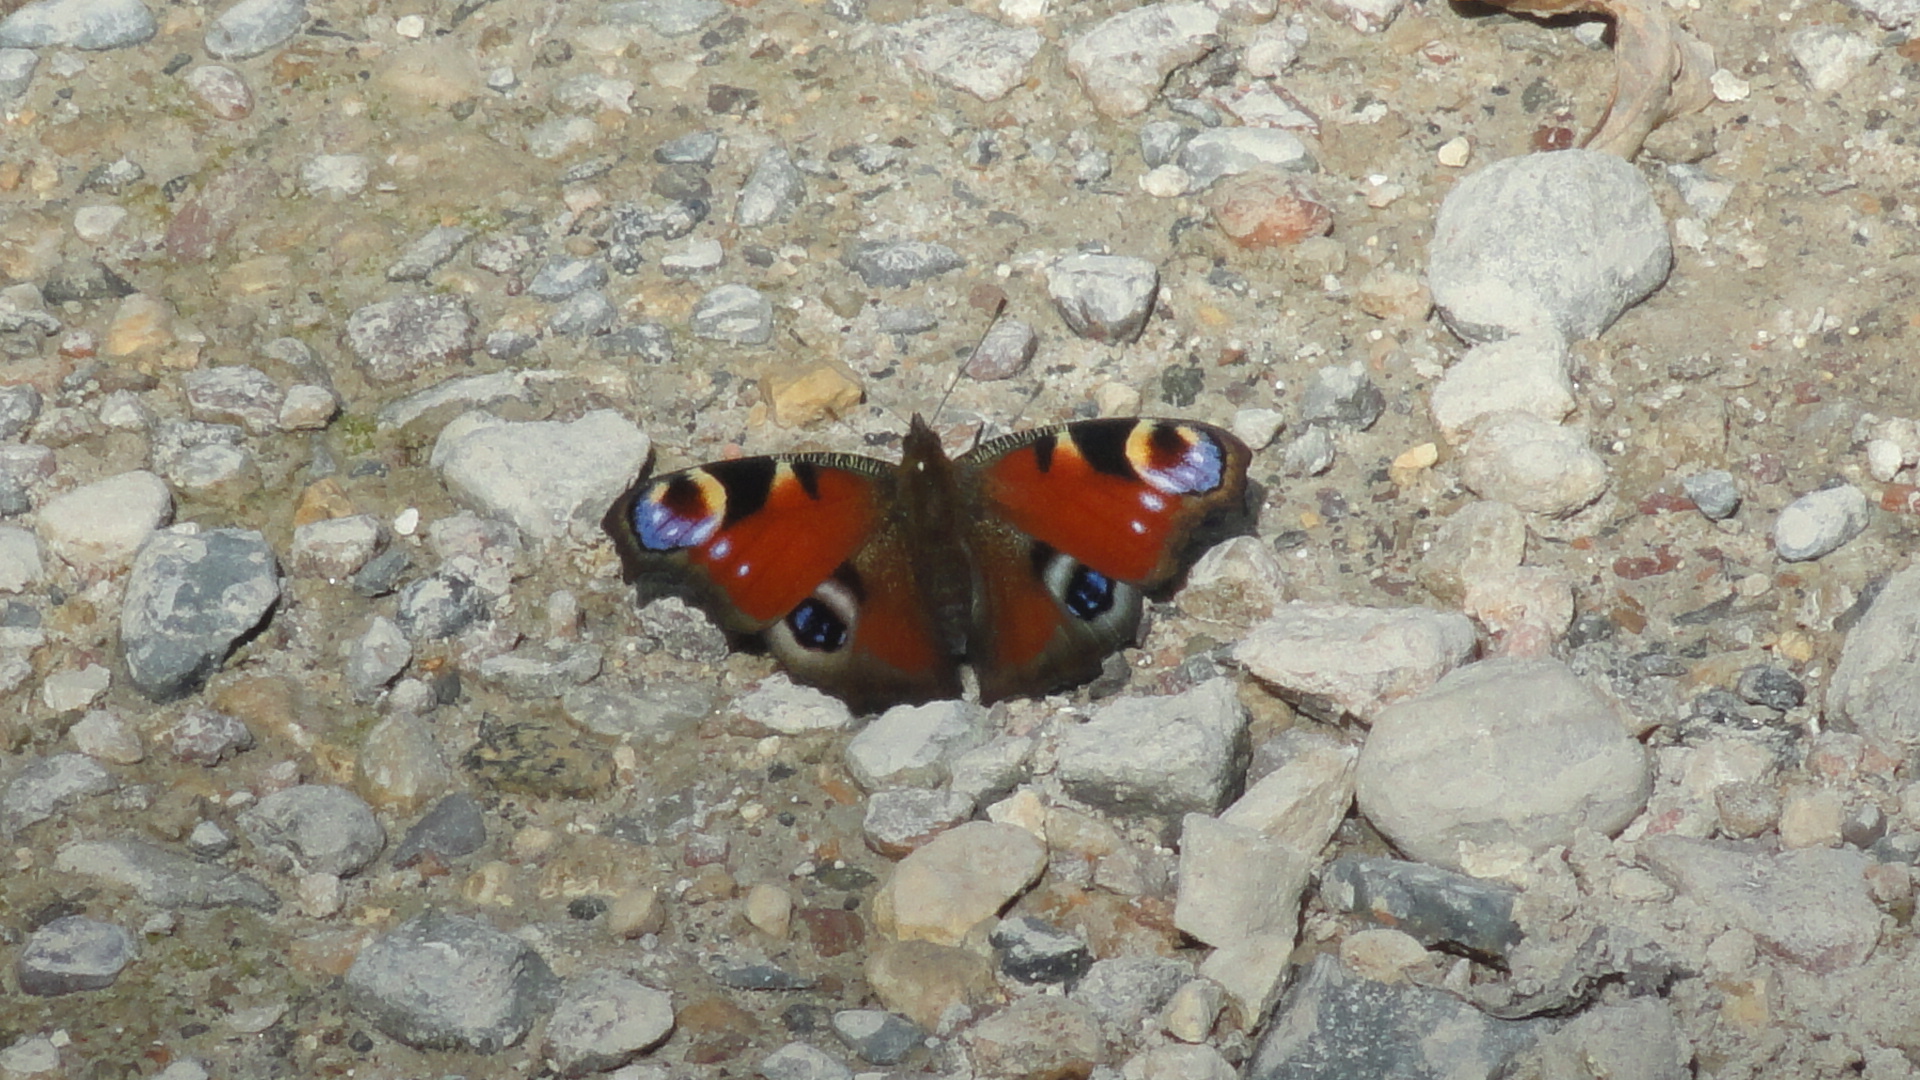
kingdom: Animalia
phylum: Arthropoda
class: Insecta
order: Lepidoptera
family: Nymphalidae
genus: Aglais
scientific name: Aglais io
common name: Peacock
